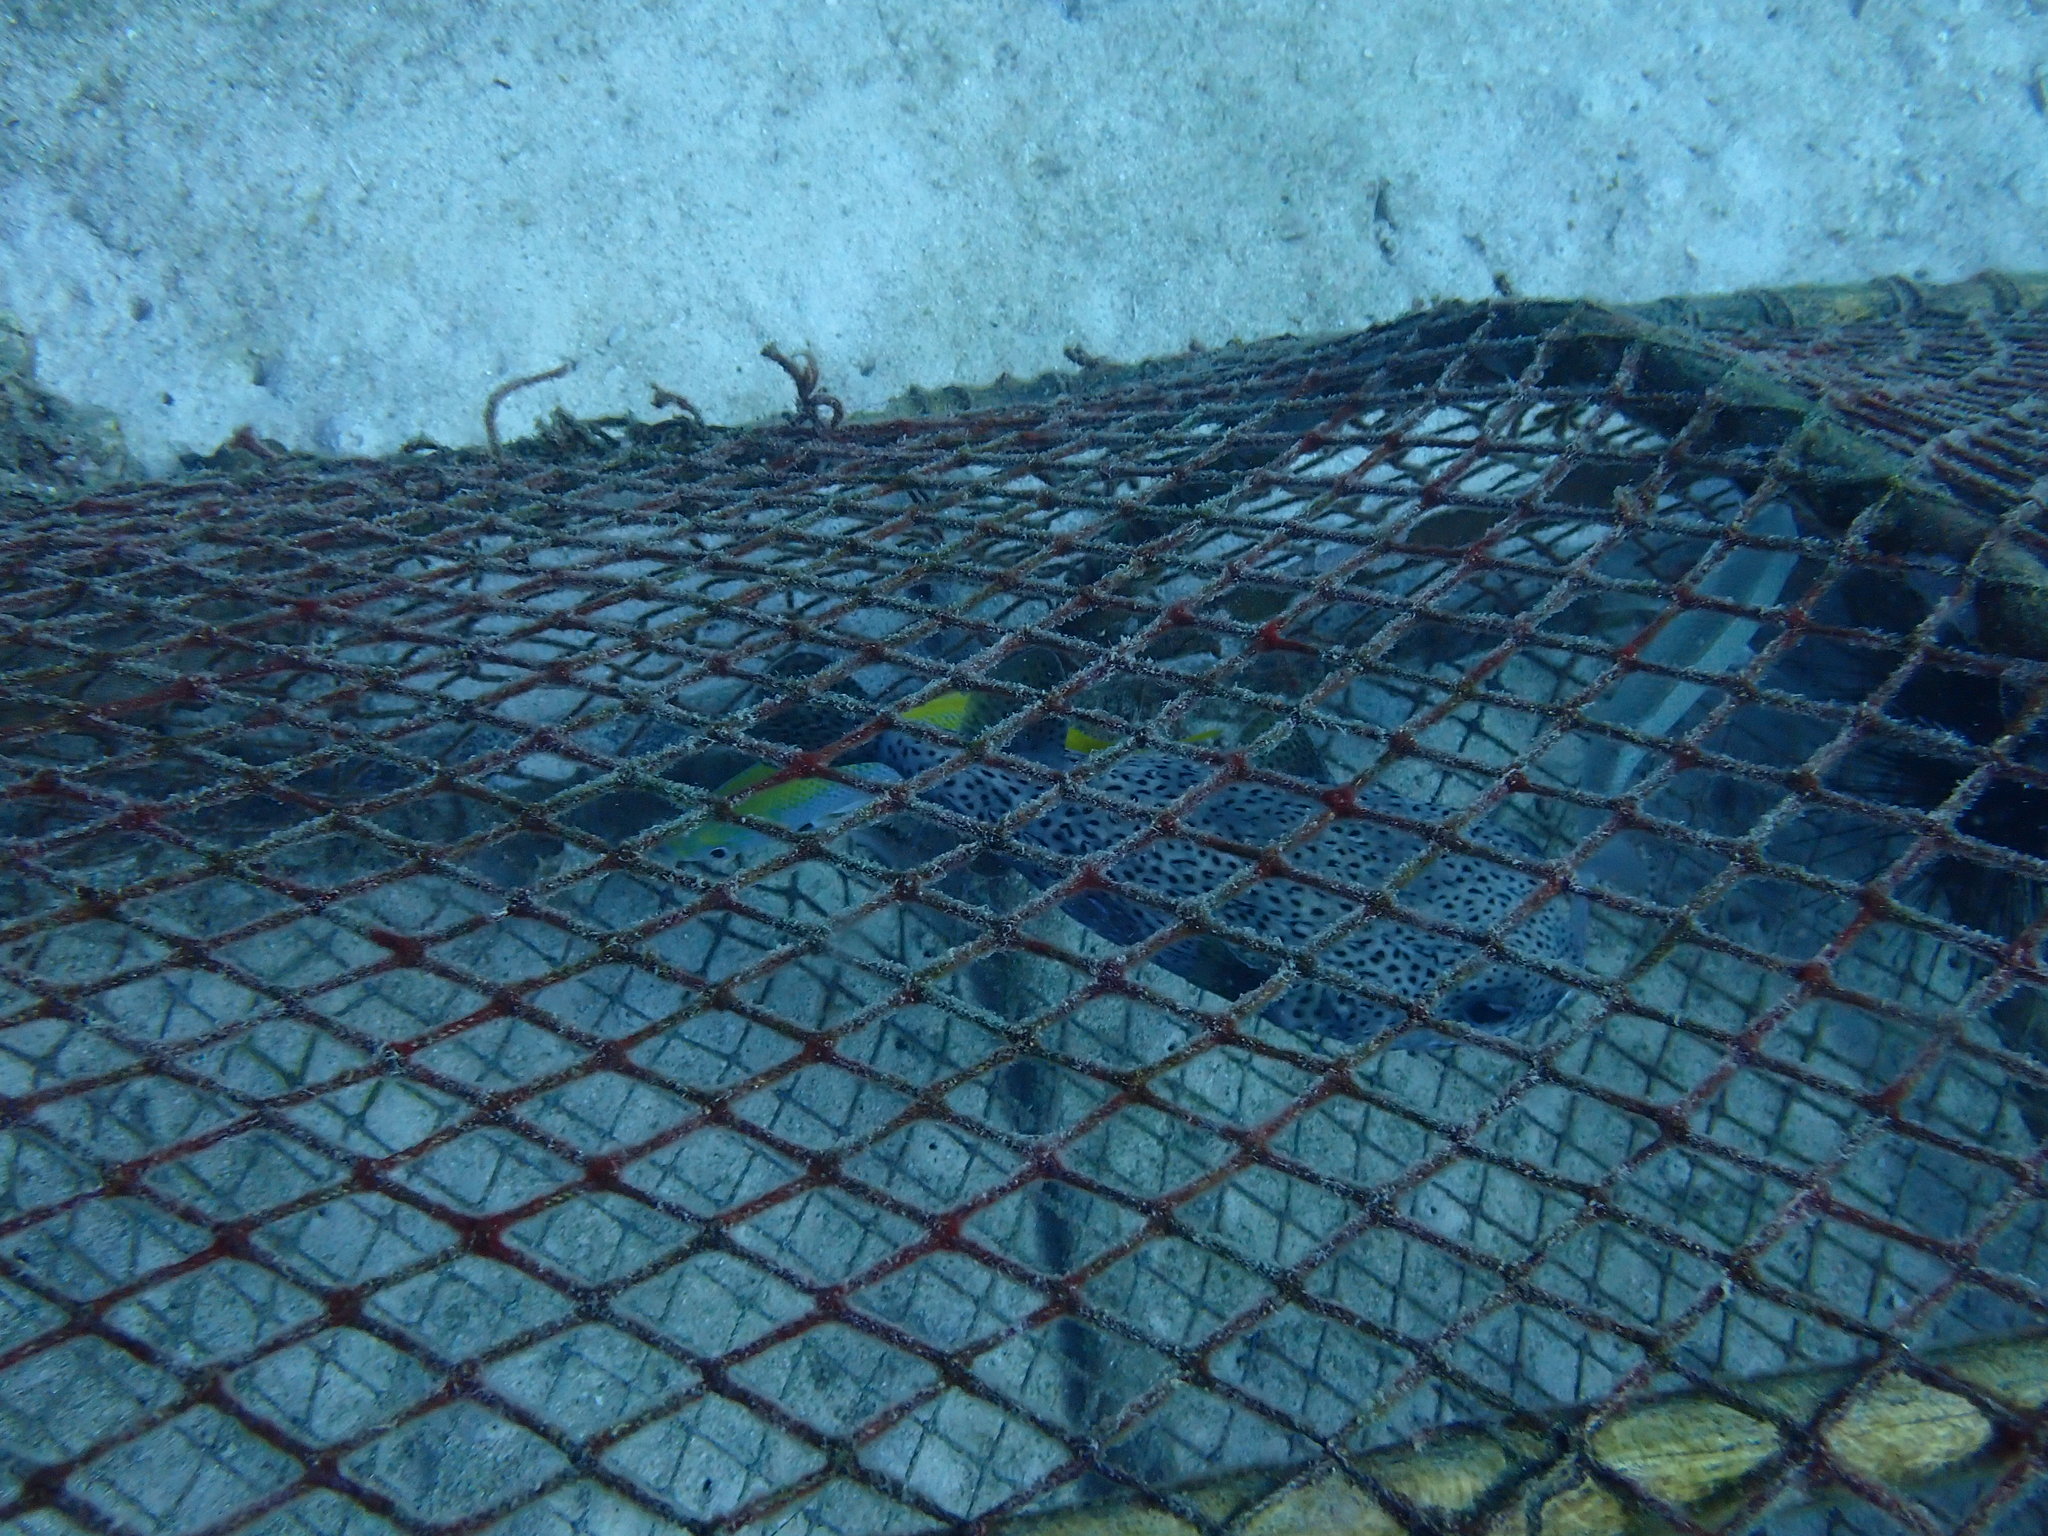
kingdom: Animalia
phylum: Chordata
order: Tetraodontiformes
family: Diodontidae
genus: Diodon
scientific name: Diodon hystrix
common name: Giant porcupinefish
